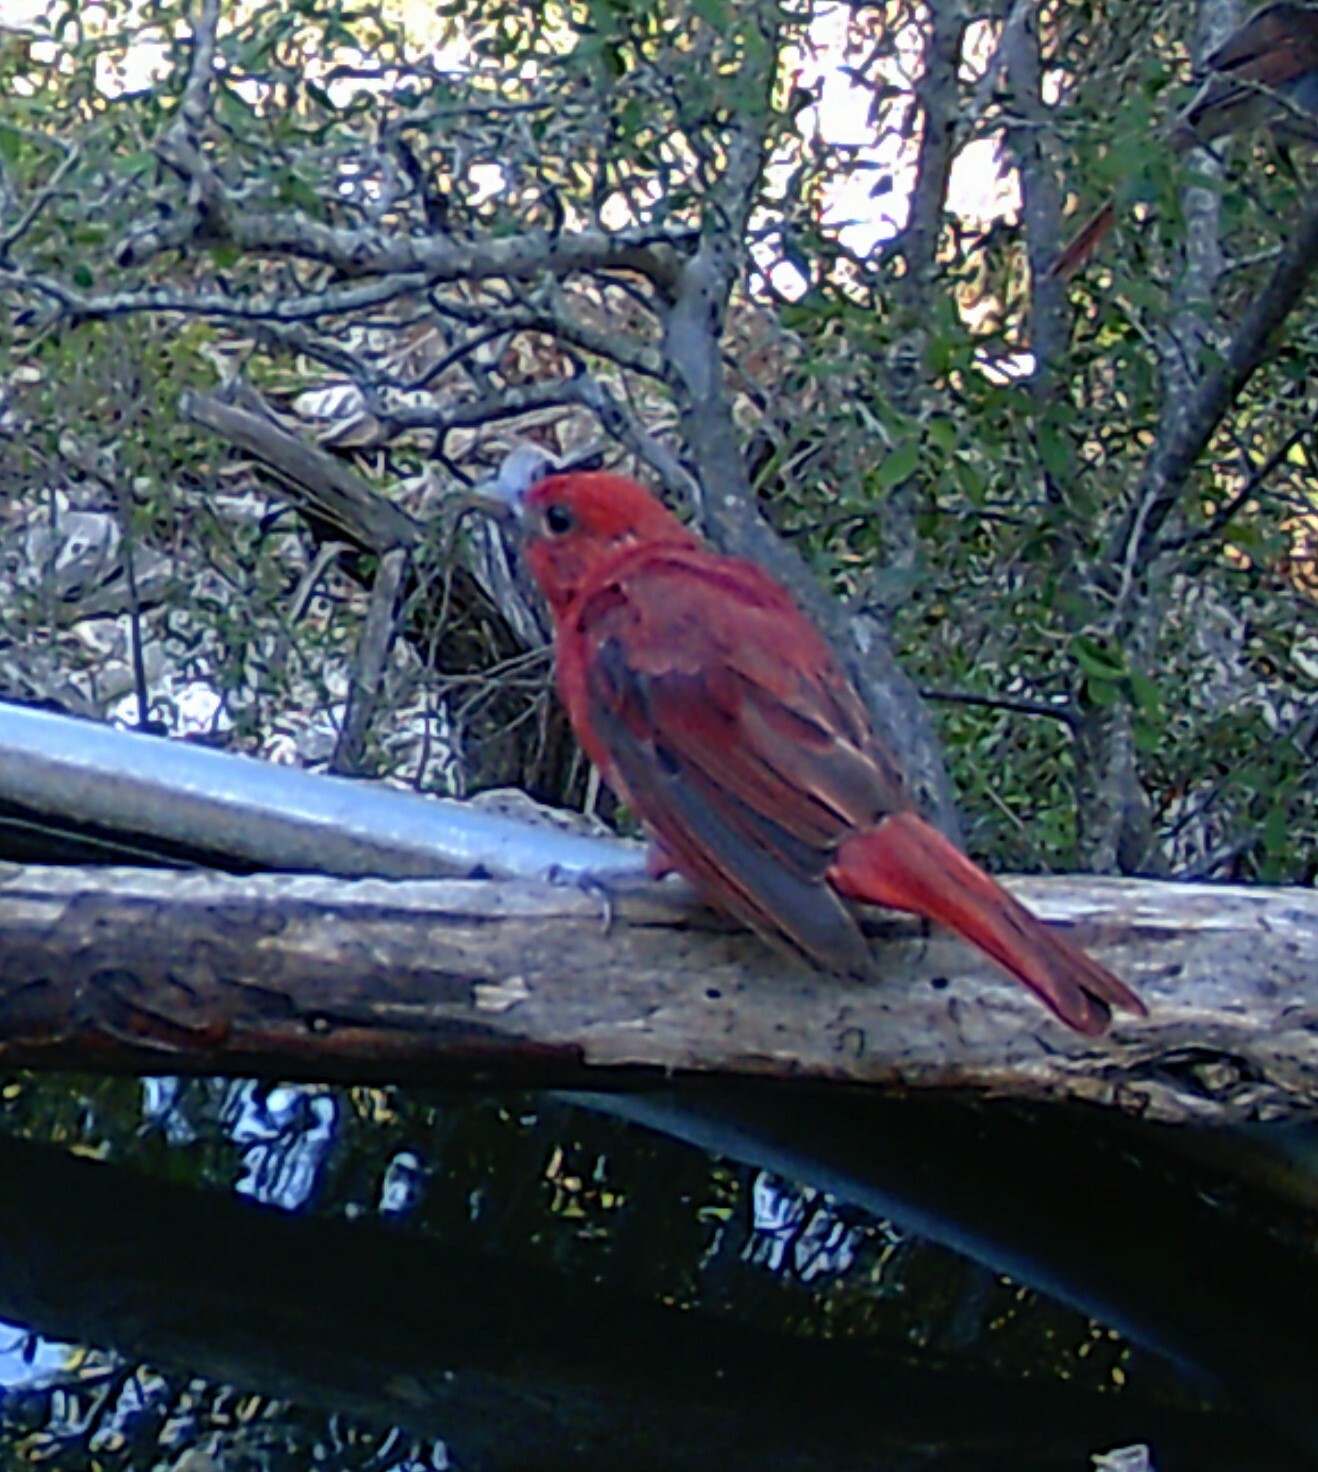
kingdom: Animalia
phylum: Chordata
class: Aves
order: Passeriformes
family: Cardinalidae
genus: Piranga
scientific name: Piranga rubra
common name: Summer tanager
